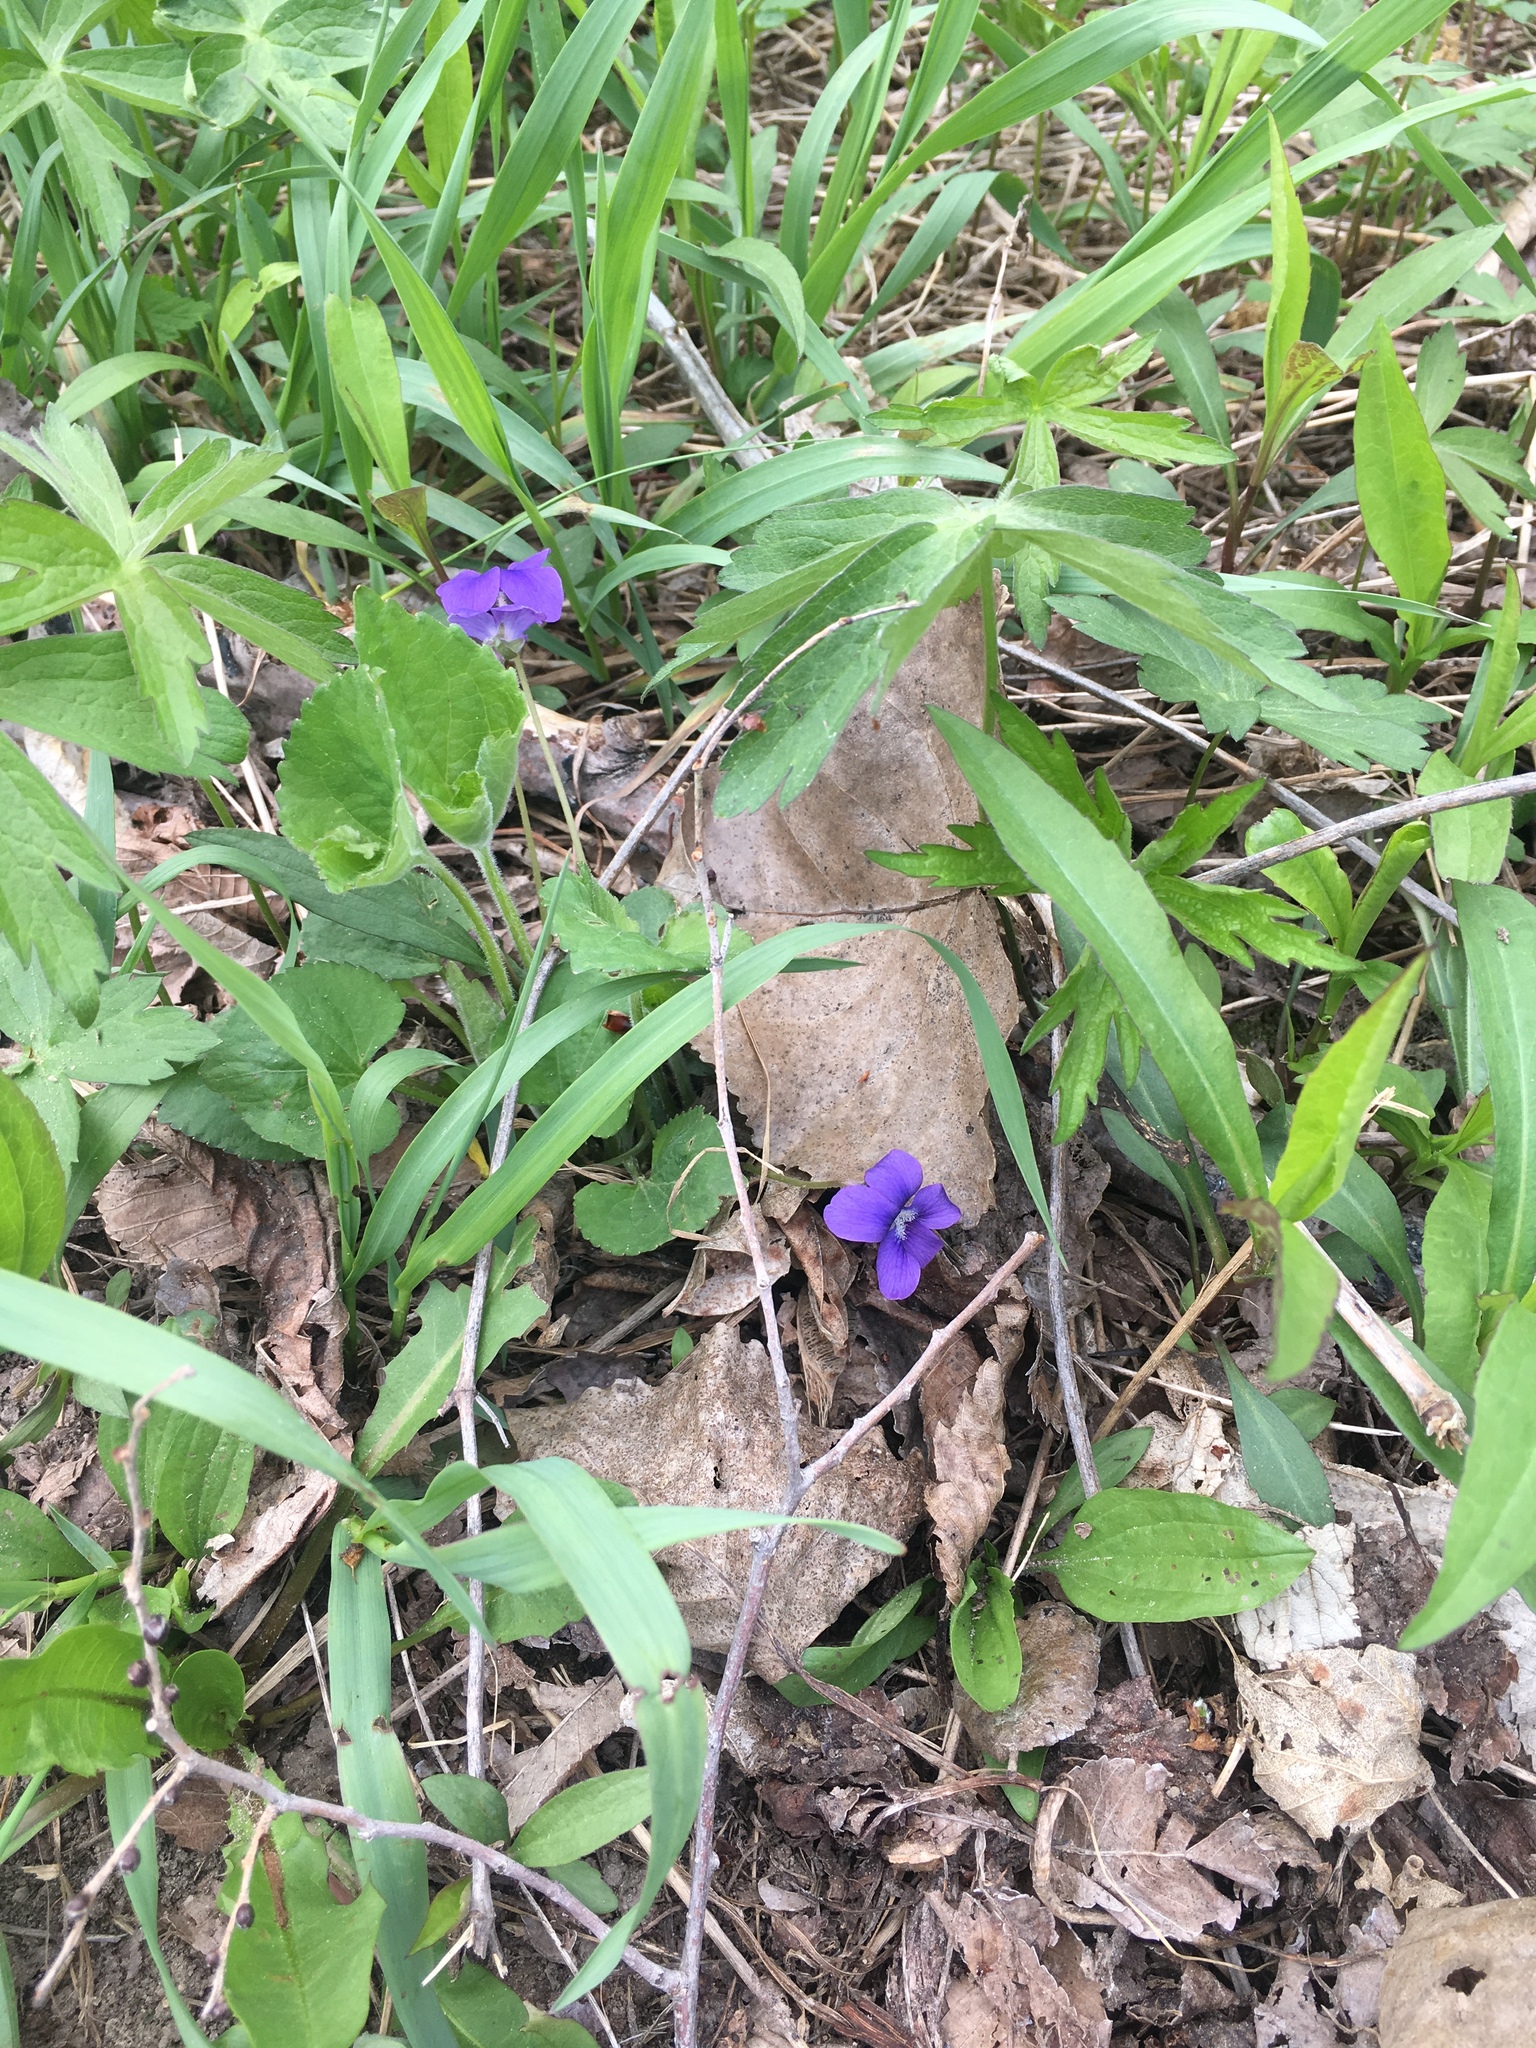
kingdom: Plantae
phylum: Tracheophyta
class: Magnoliopsida
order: Malpighiales
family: Violaceae
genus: Viola
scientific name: Viola sororia
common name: Dooryard violet
